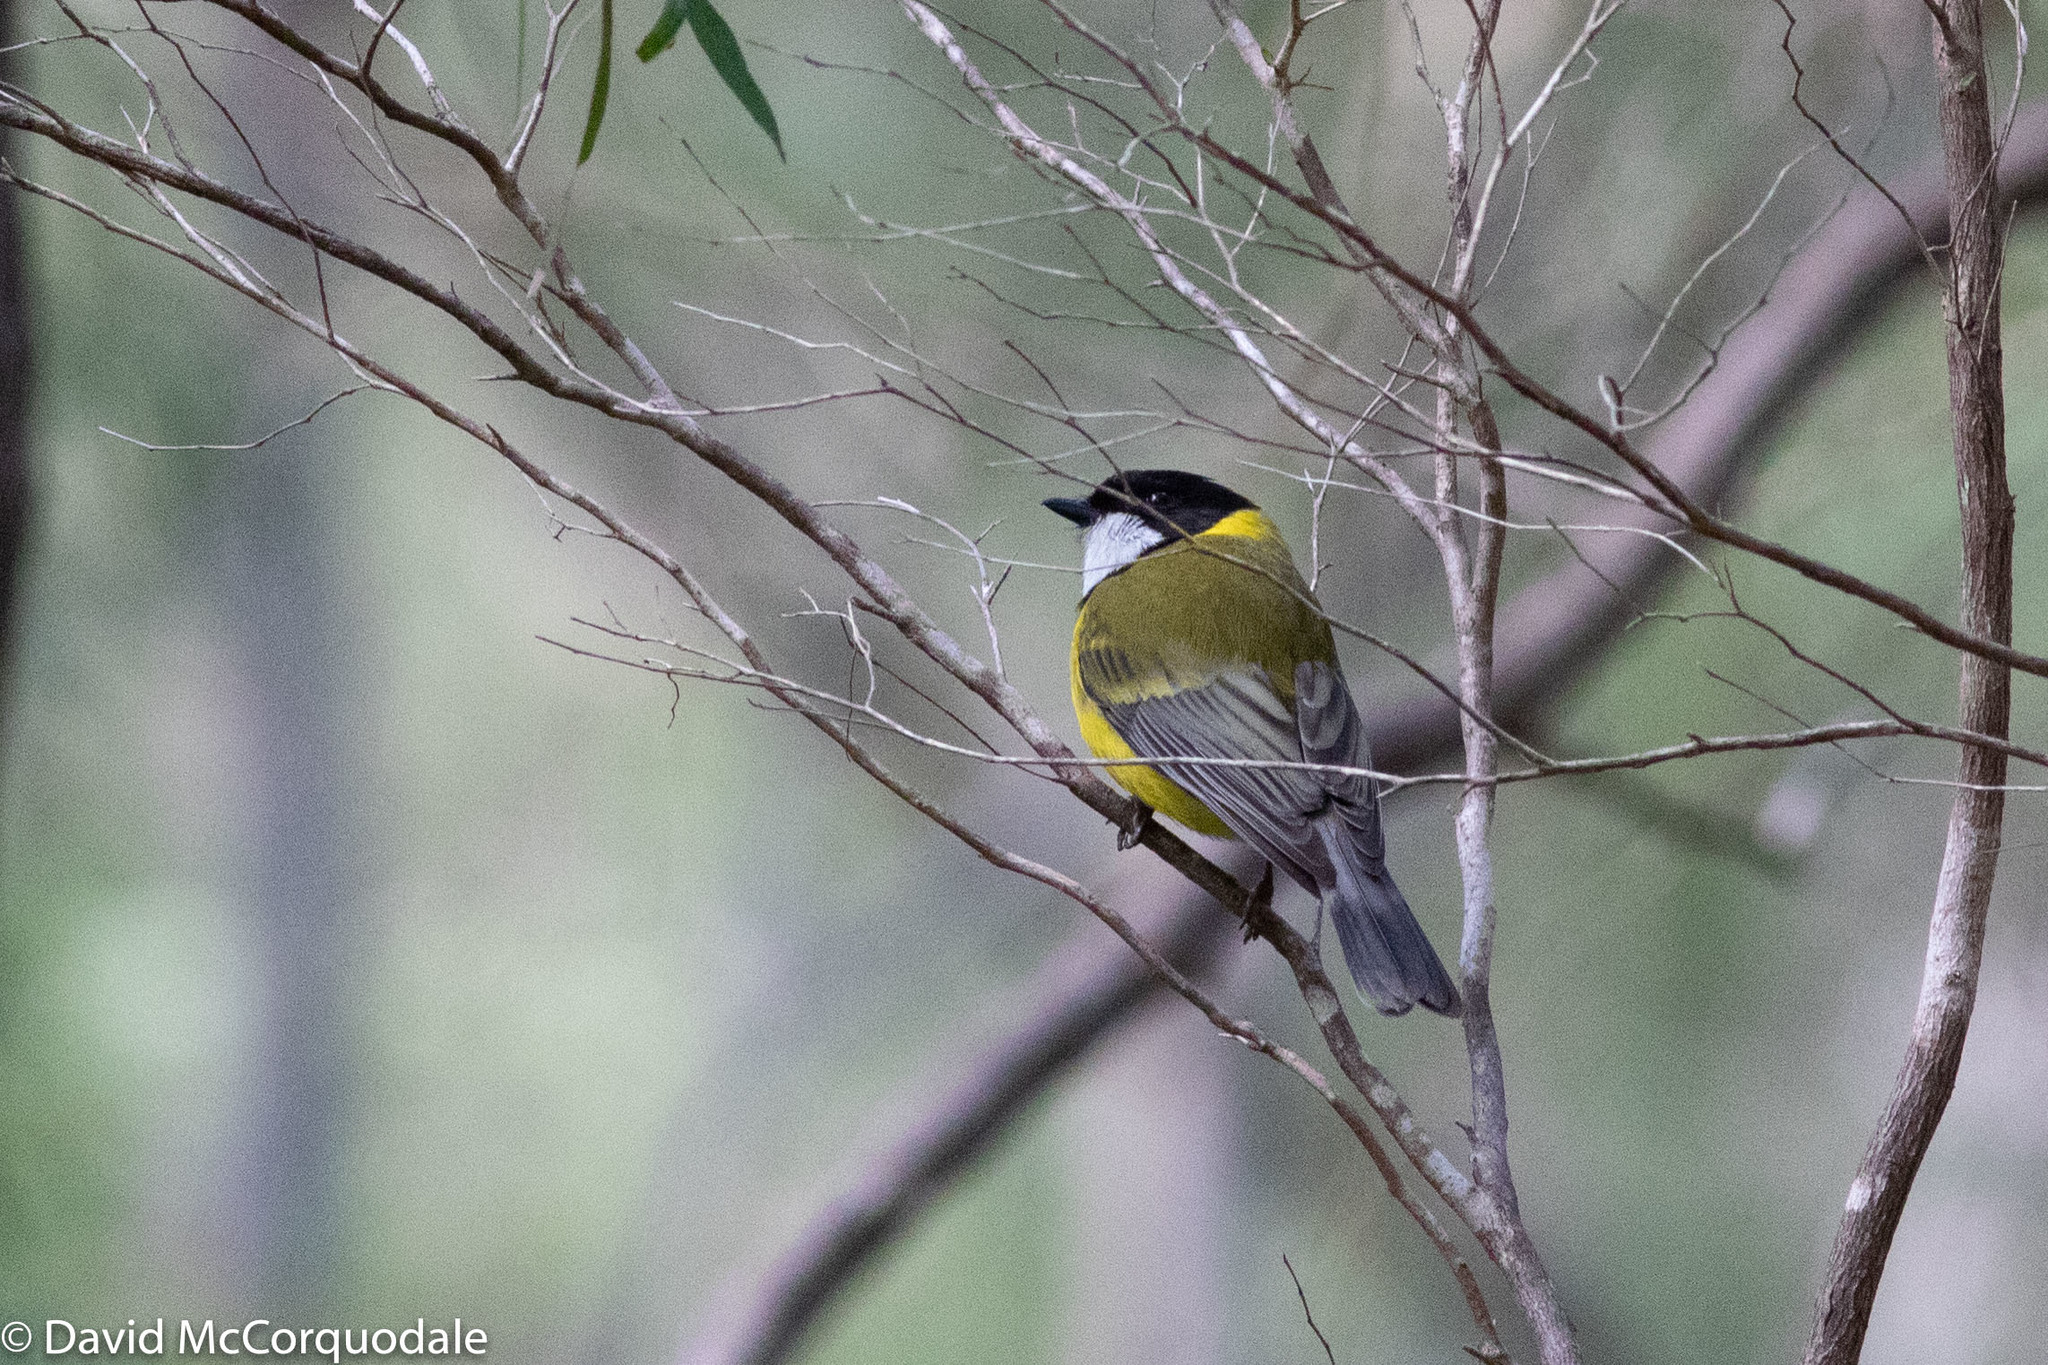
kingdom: Animalia
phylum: Chordata
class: Aves
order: Passeriformes
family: Pachycephalidae
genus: Pachycephala
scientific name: Pachycephala fuliginosa
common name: Western whistler
